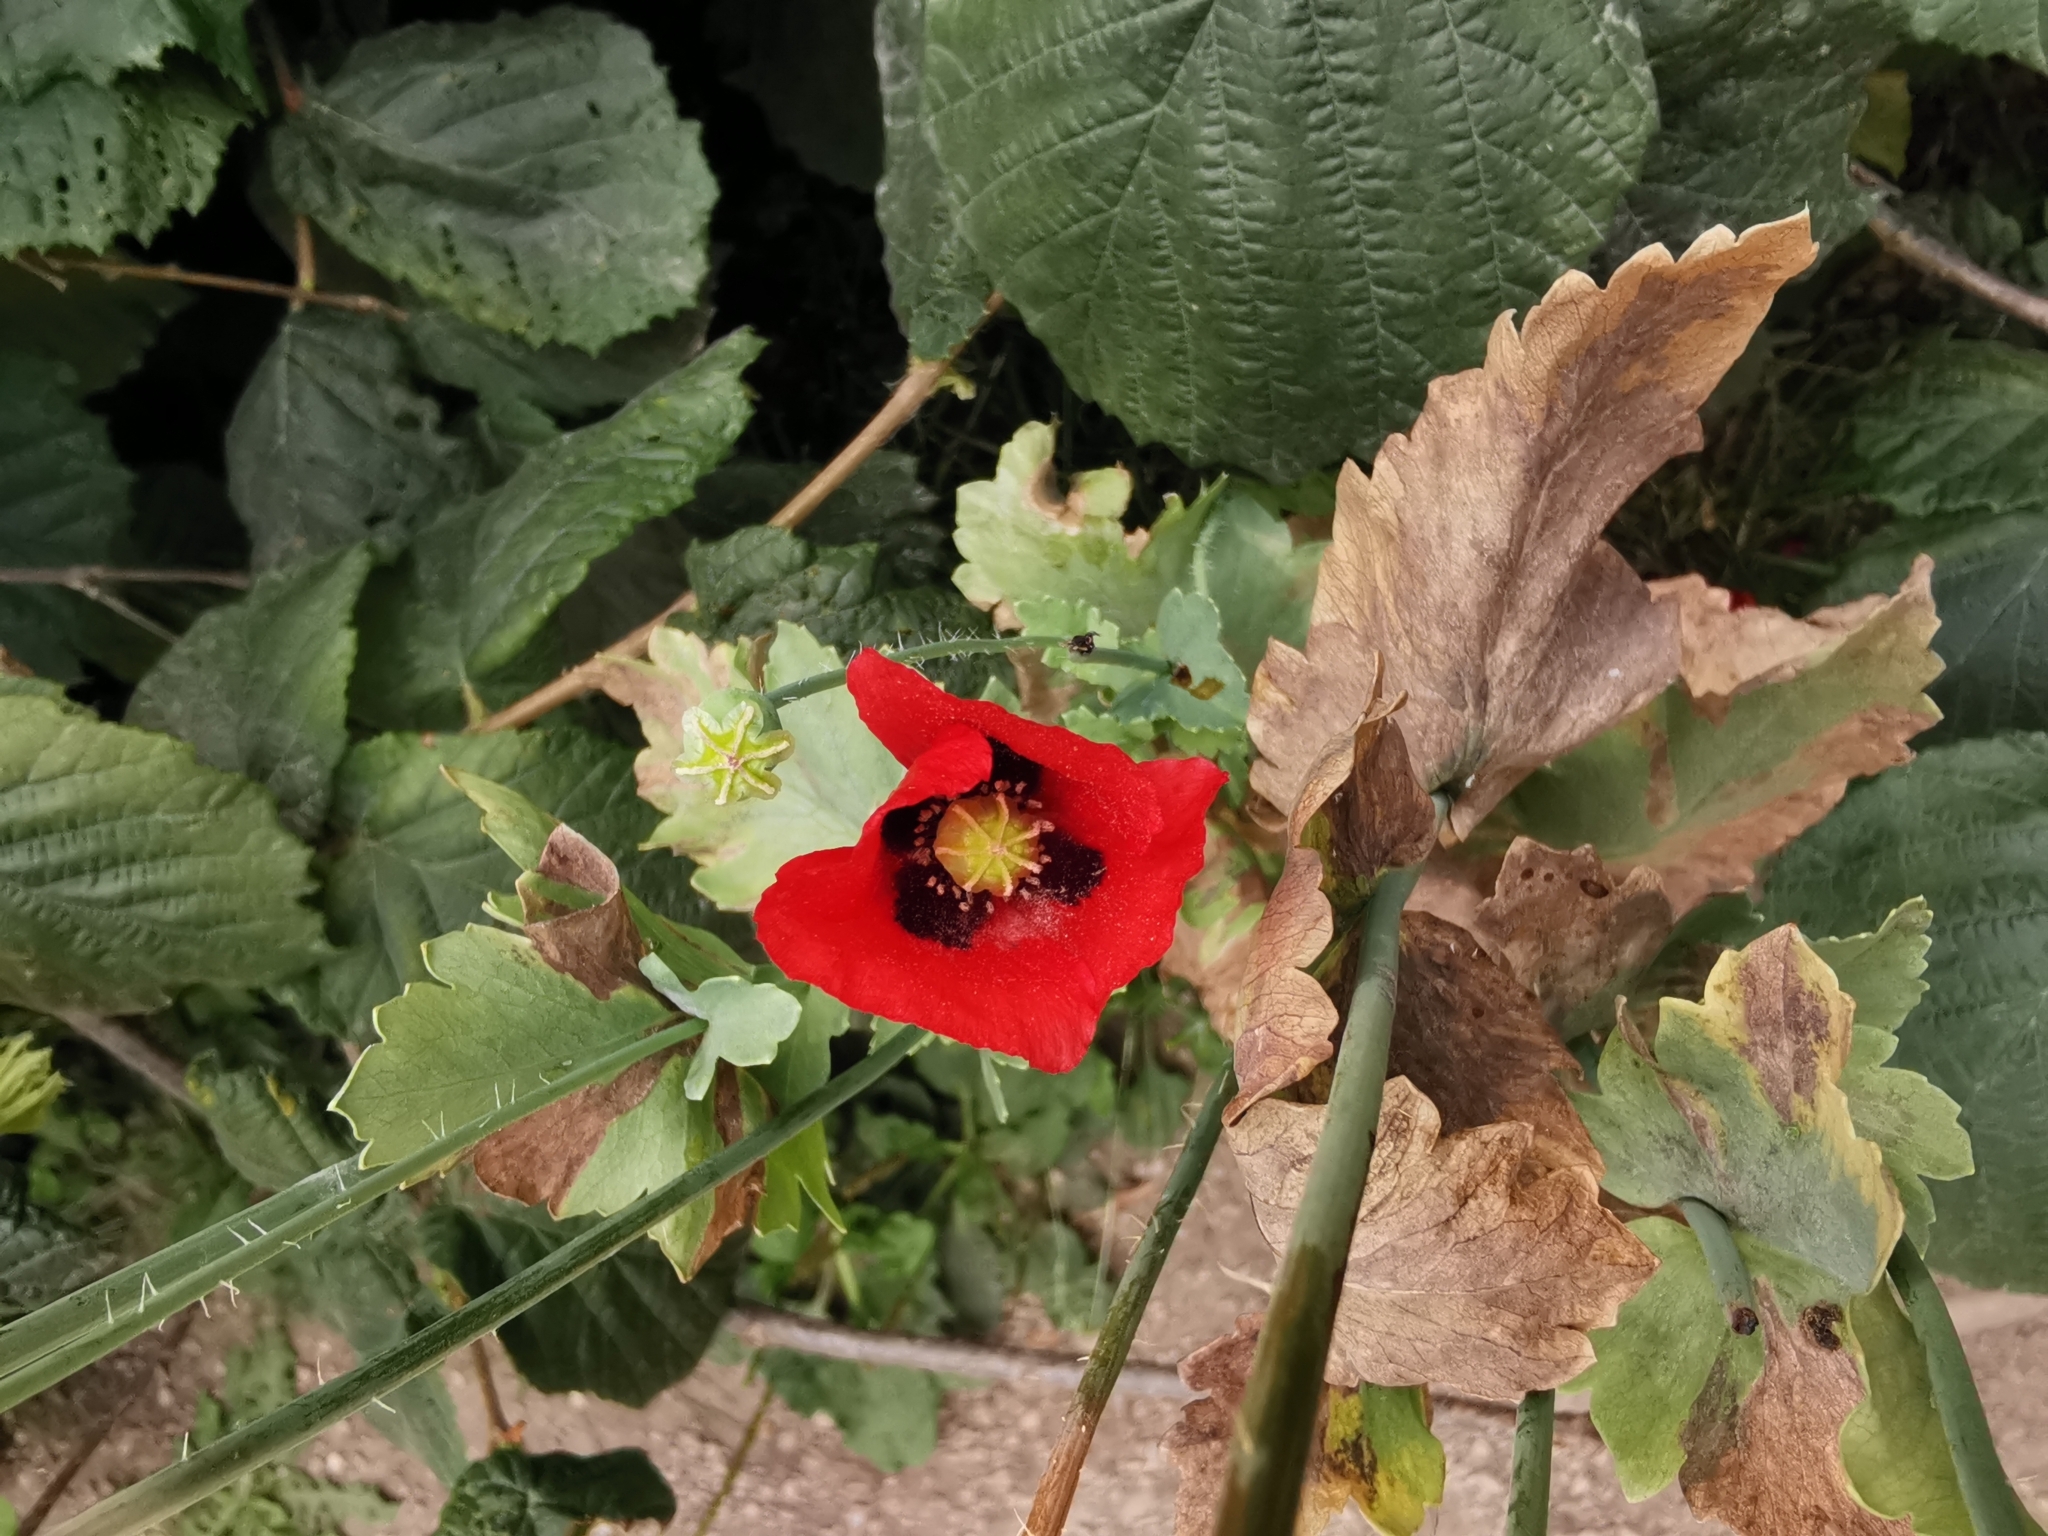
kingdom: Plantae
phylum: Tracheophyta
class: Magnoliopsida
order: Ranunculales
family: Papaveraceae
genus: Papaver
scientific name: Papaver somniferum
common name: Opium poppy
